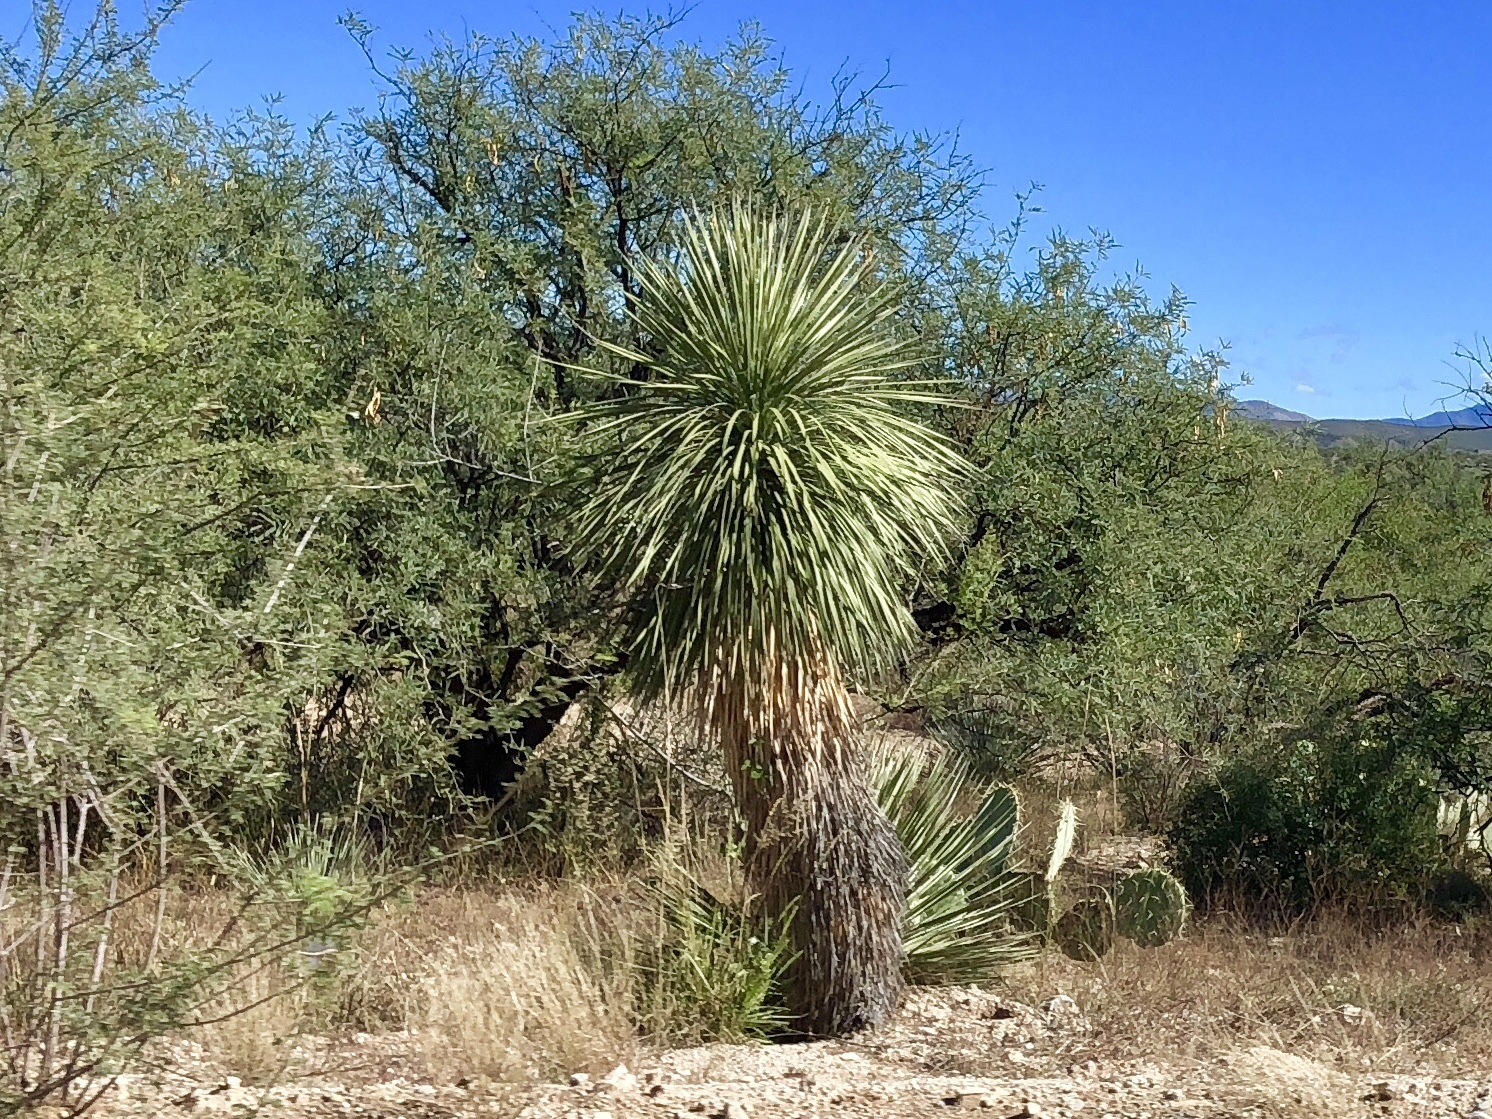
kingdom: Plantae
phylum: Tracheophyta
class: Liliopsida
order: Asparagales
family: Asparagaceae
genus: Yucca
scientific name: Yucca elata
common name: Palmella
